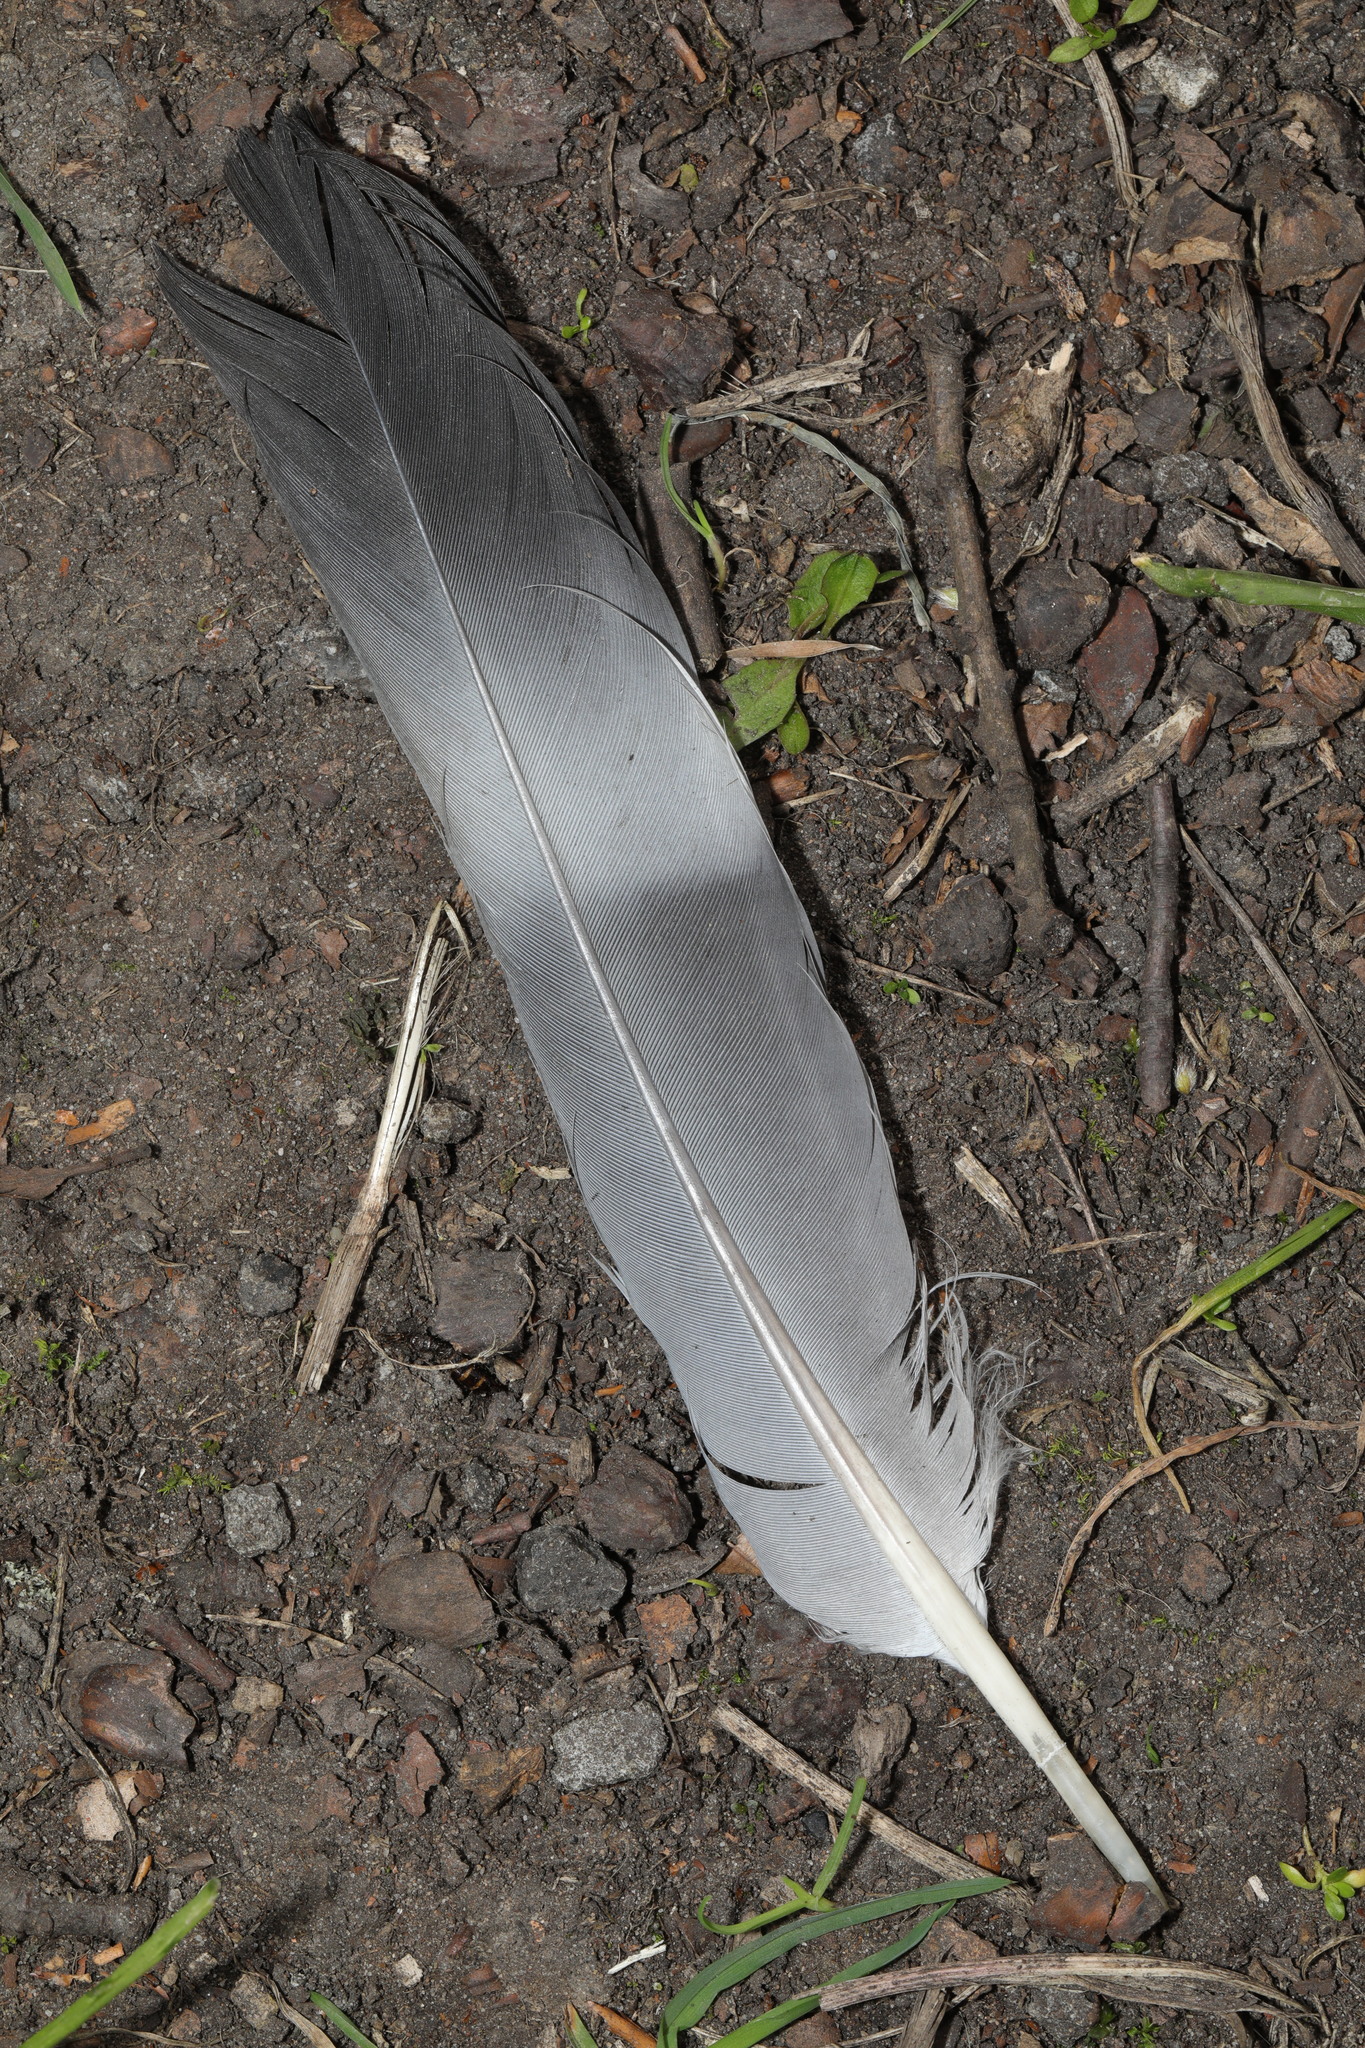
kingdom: Animalia
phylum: Chordata
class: Aves
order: Columbiformes
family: Columbidae
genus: Columba
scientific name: Columba palumbus
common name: Common wood pigeon
